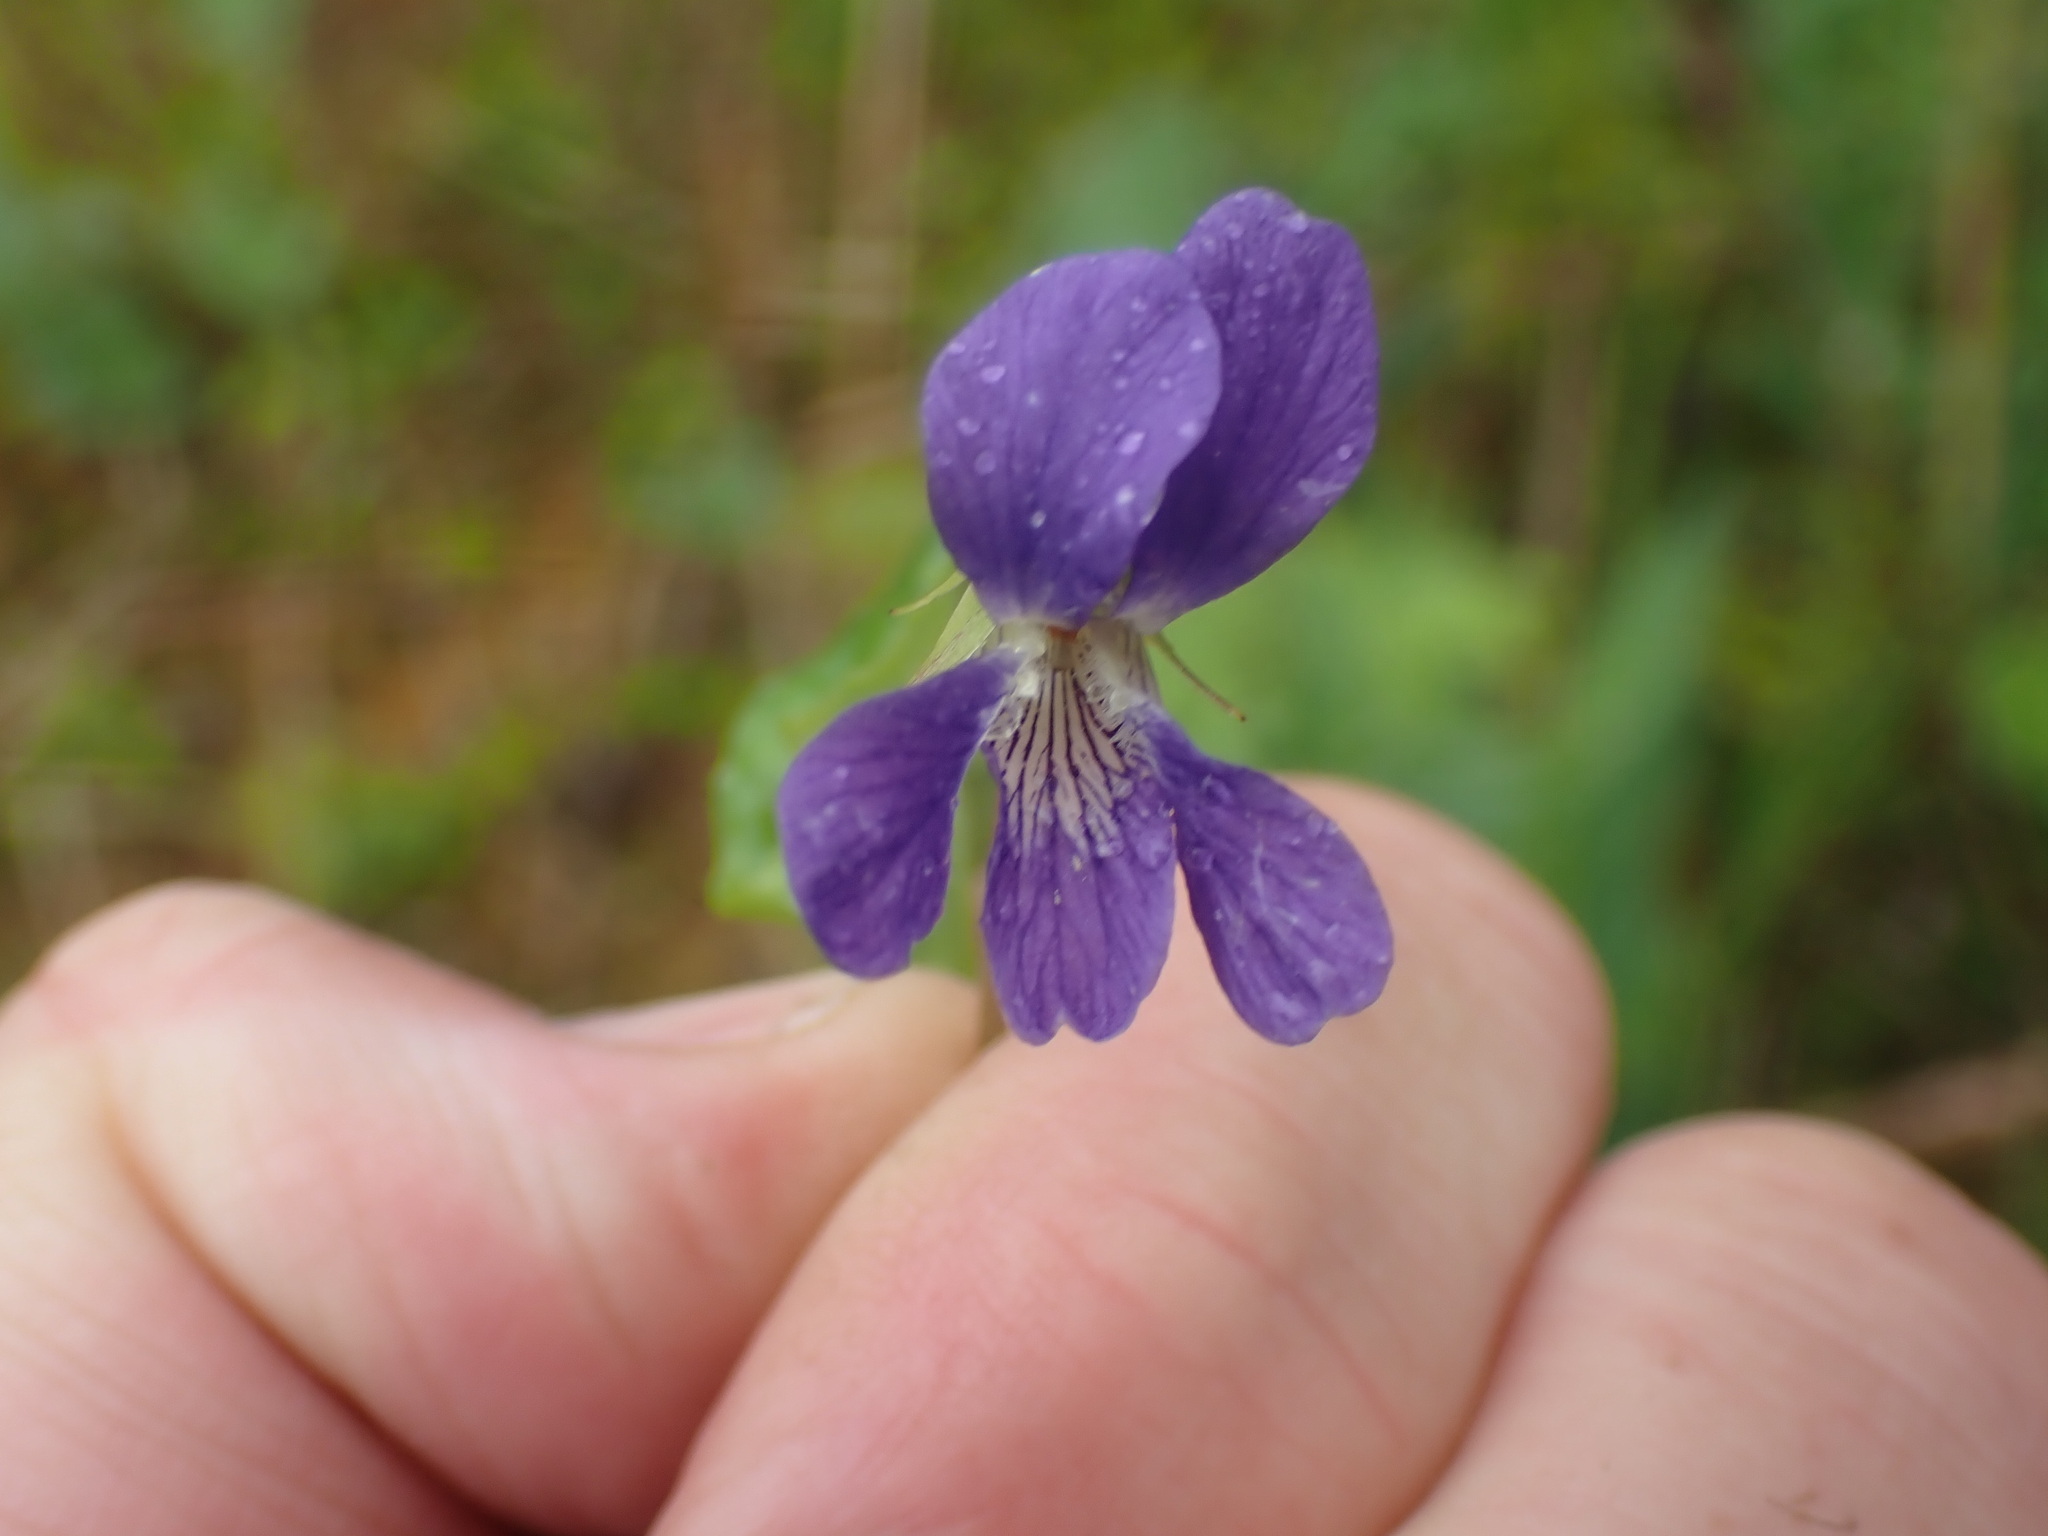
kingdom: Plantae
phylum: Tracheophyta
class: Magnoliopsida
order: Malpighiales
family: Violaceae
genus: Viola
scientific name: Viola nephrophylla
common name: Blue meadow violet
